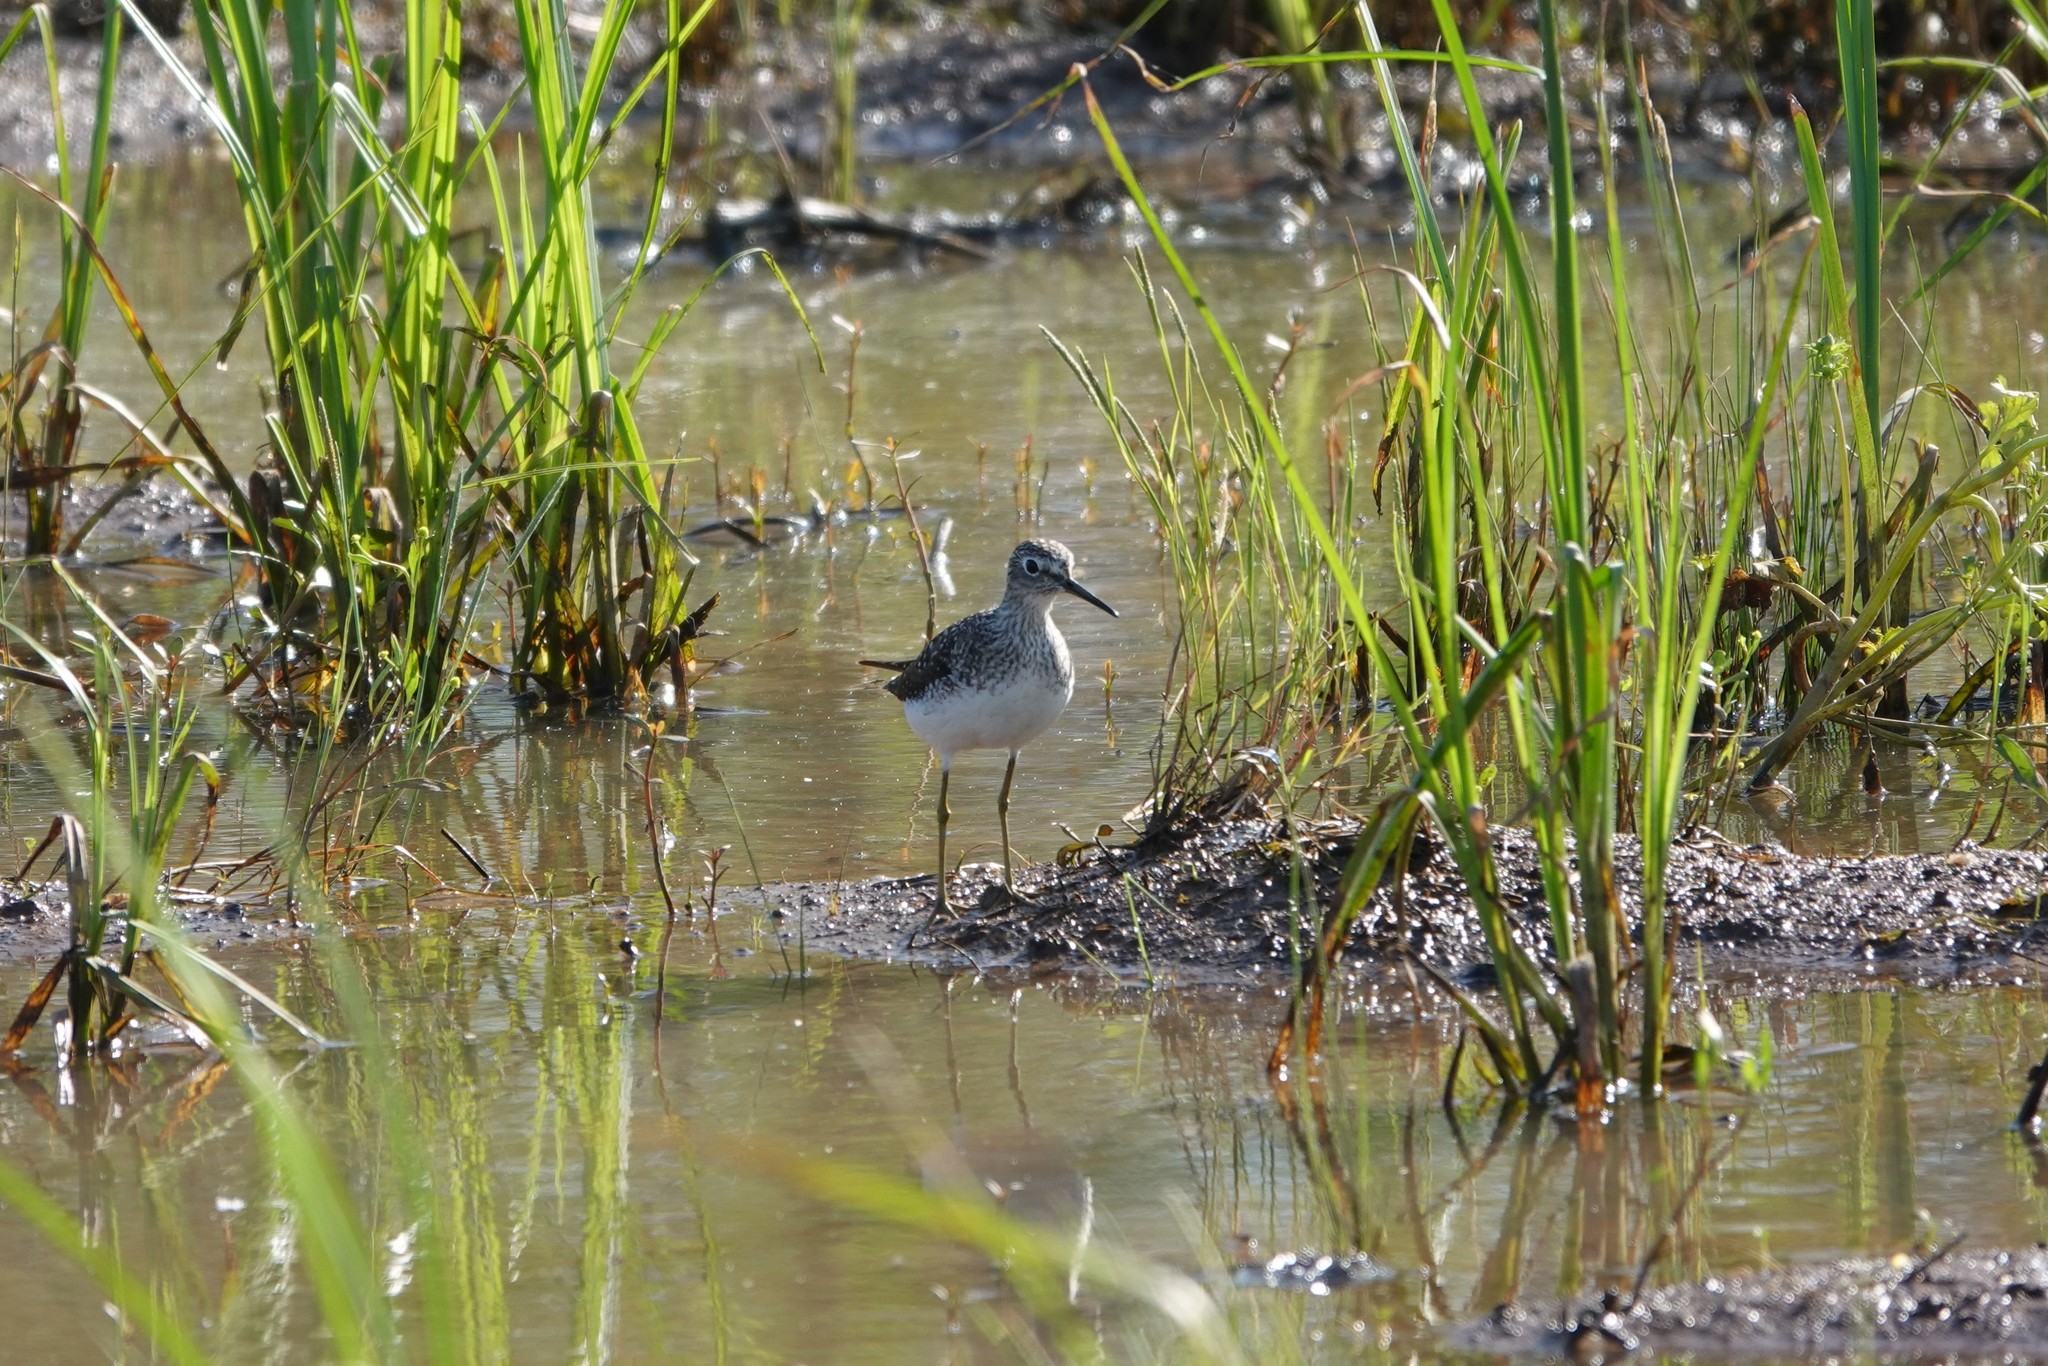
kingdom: Animalia
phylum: Chordata
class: Aves
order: Charadriiformes
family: Scolopacidae
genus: Tringa
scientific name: Tringa solitaria
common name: Solitary sandpiper
